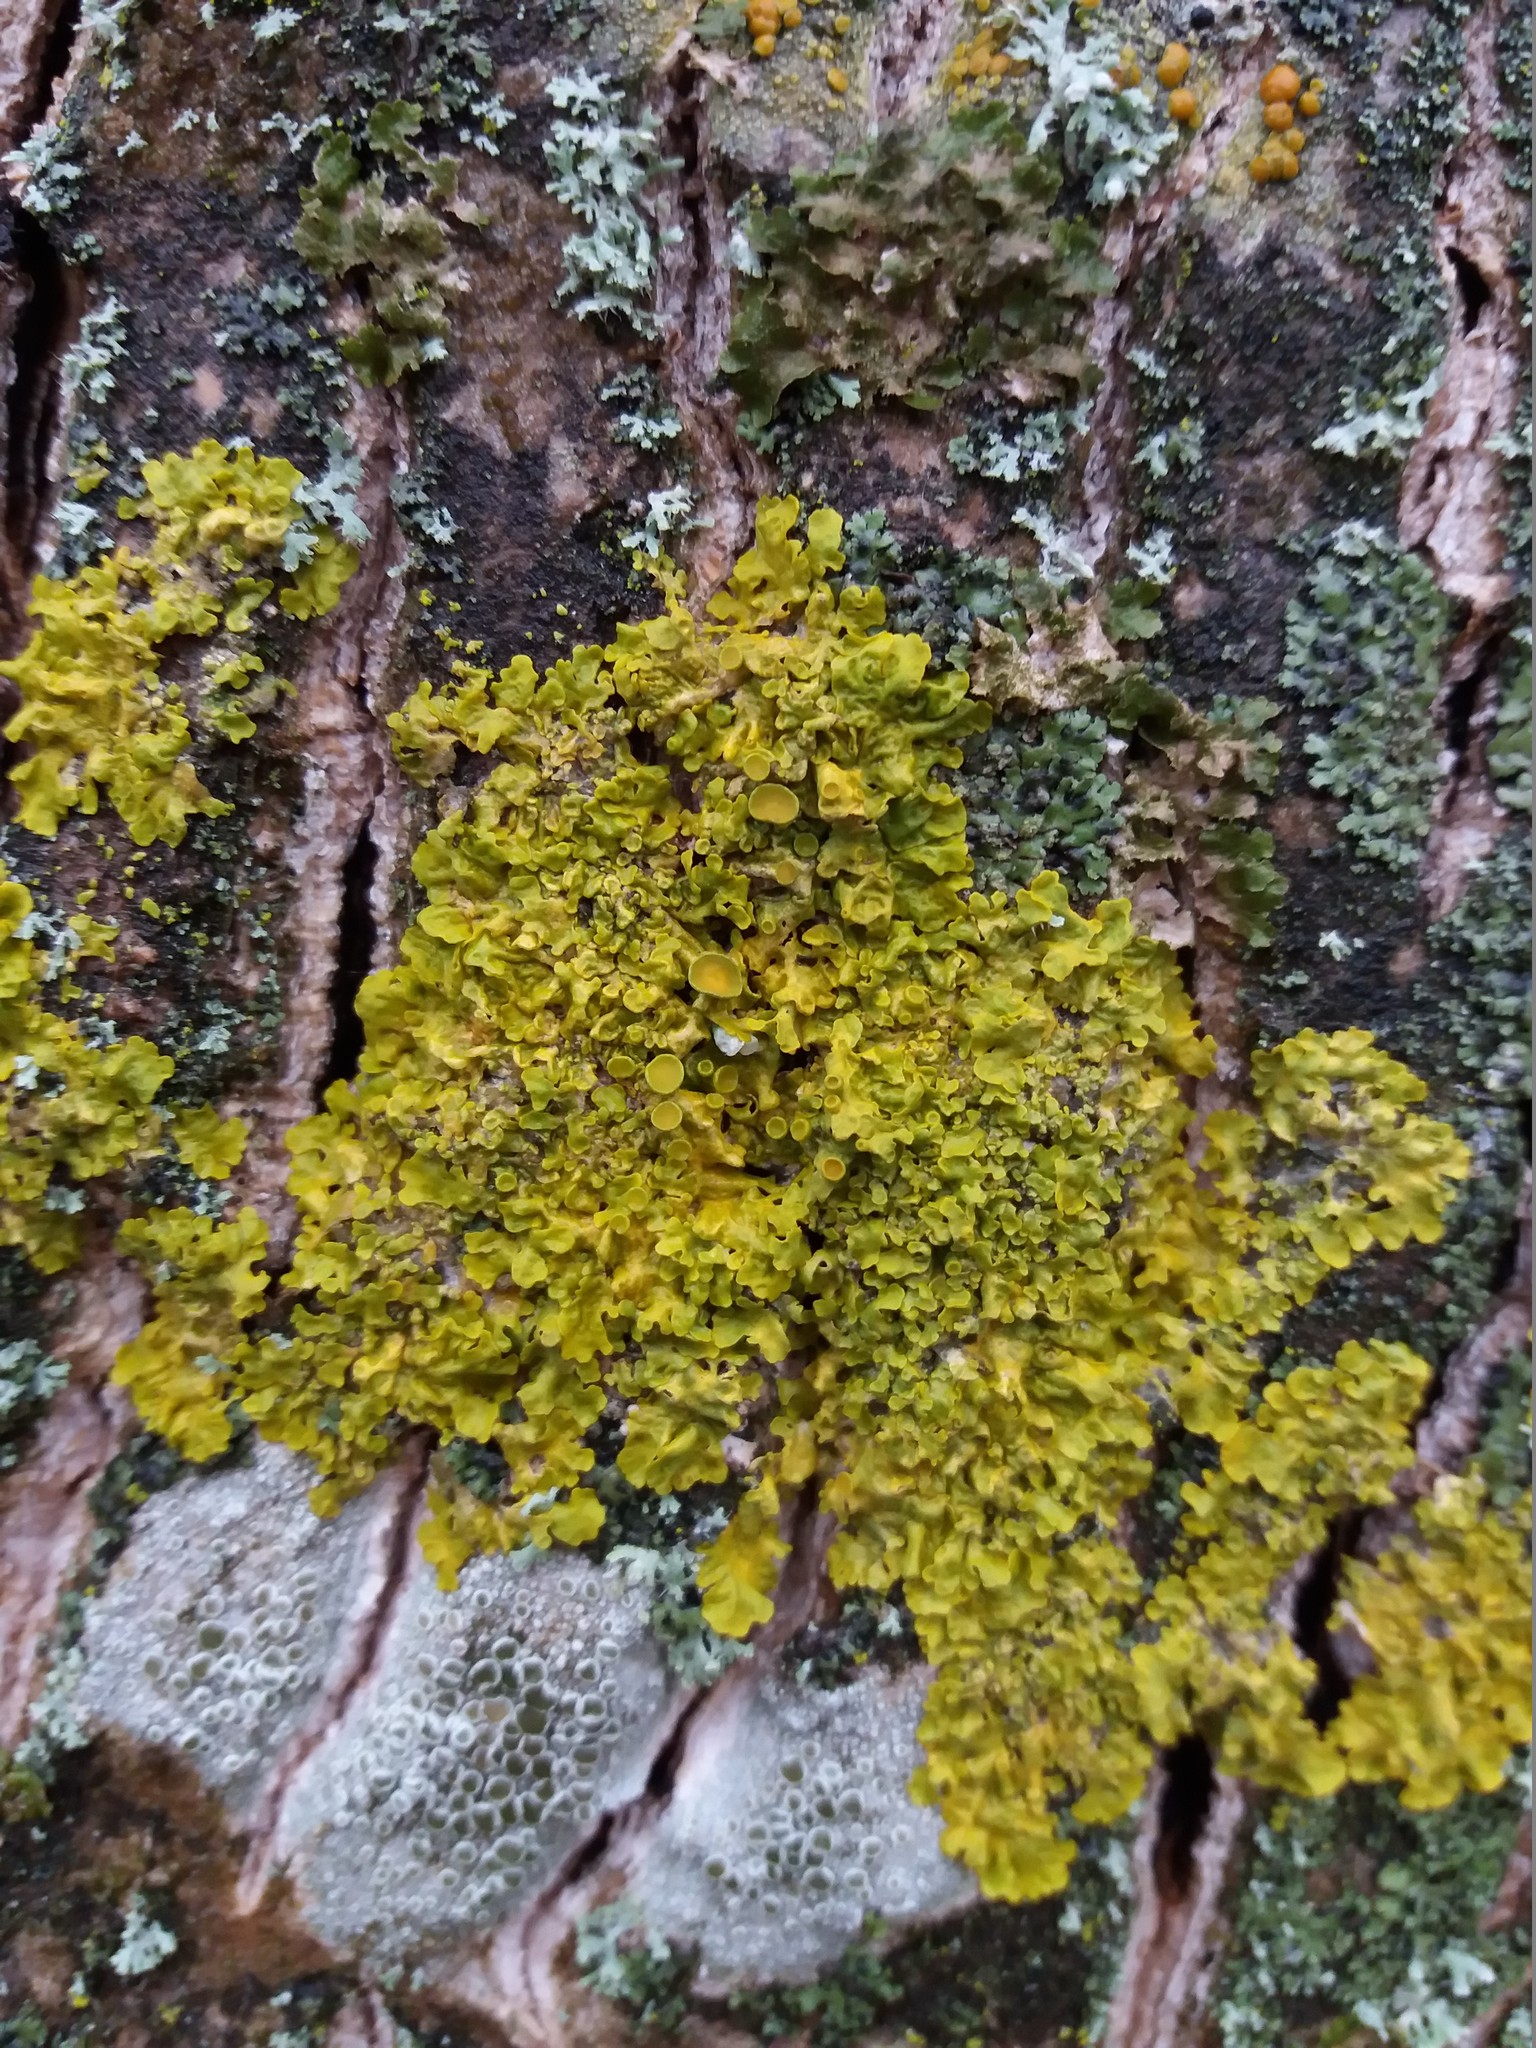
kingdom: Fungi
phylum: Ascomycota
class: Lecanoromycetes
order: Teloschistales
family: Teloschistaceae
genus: Xanthoria
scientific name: Xanthoria parietina
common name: Common orange lichen
